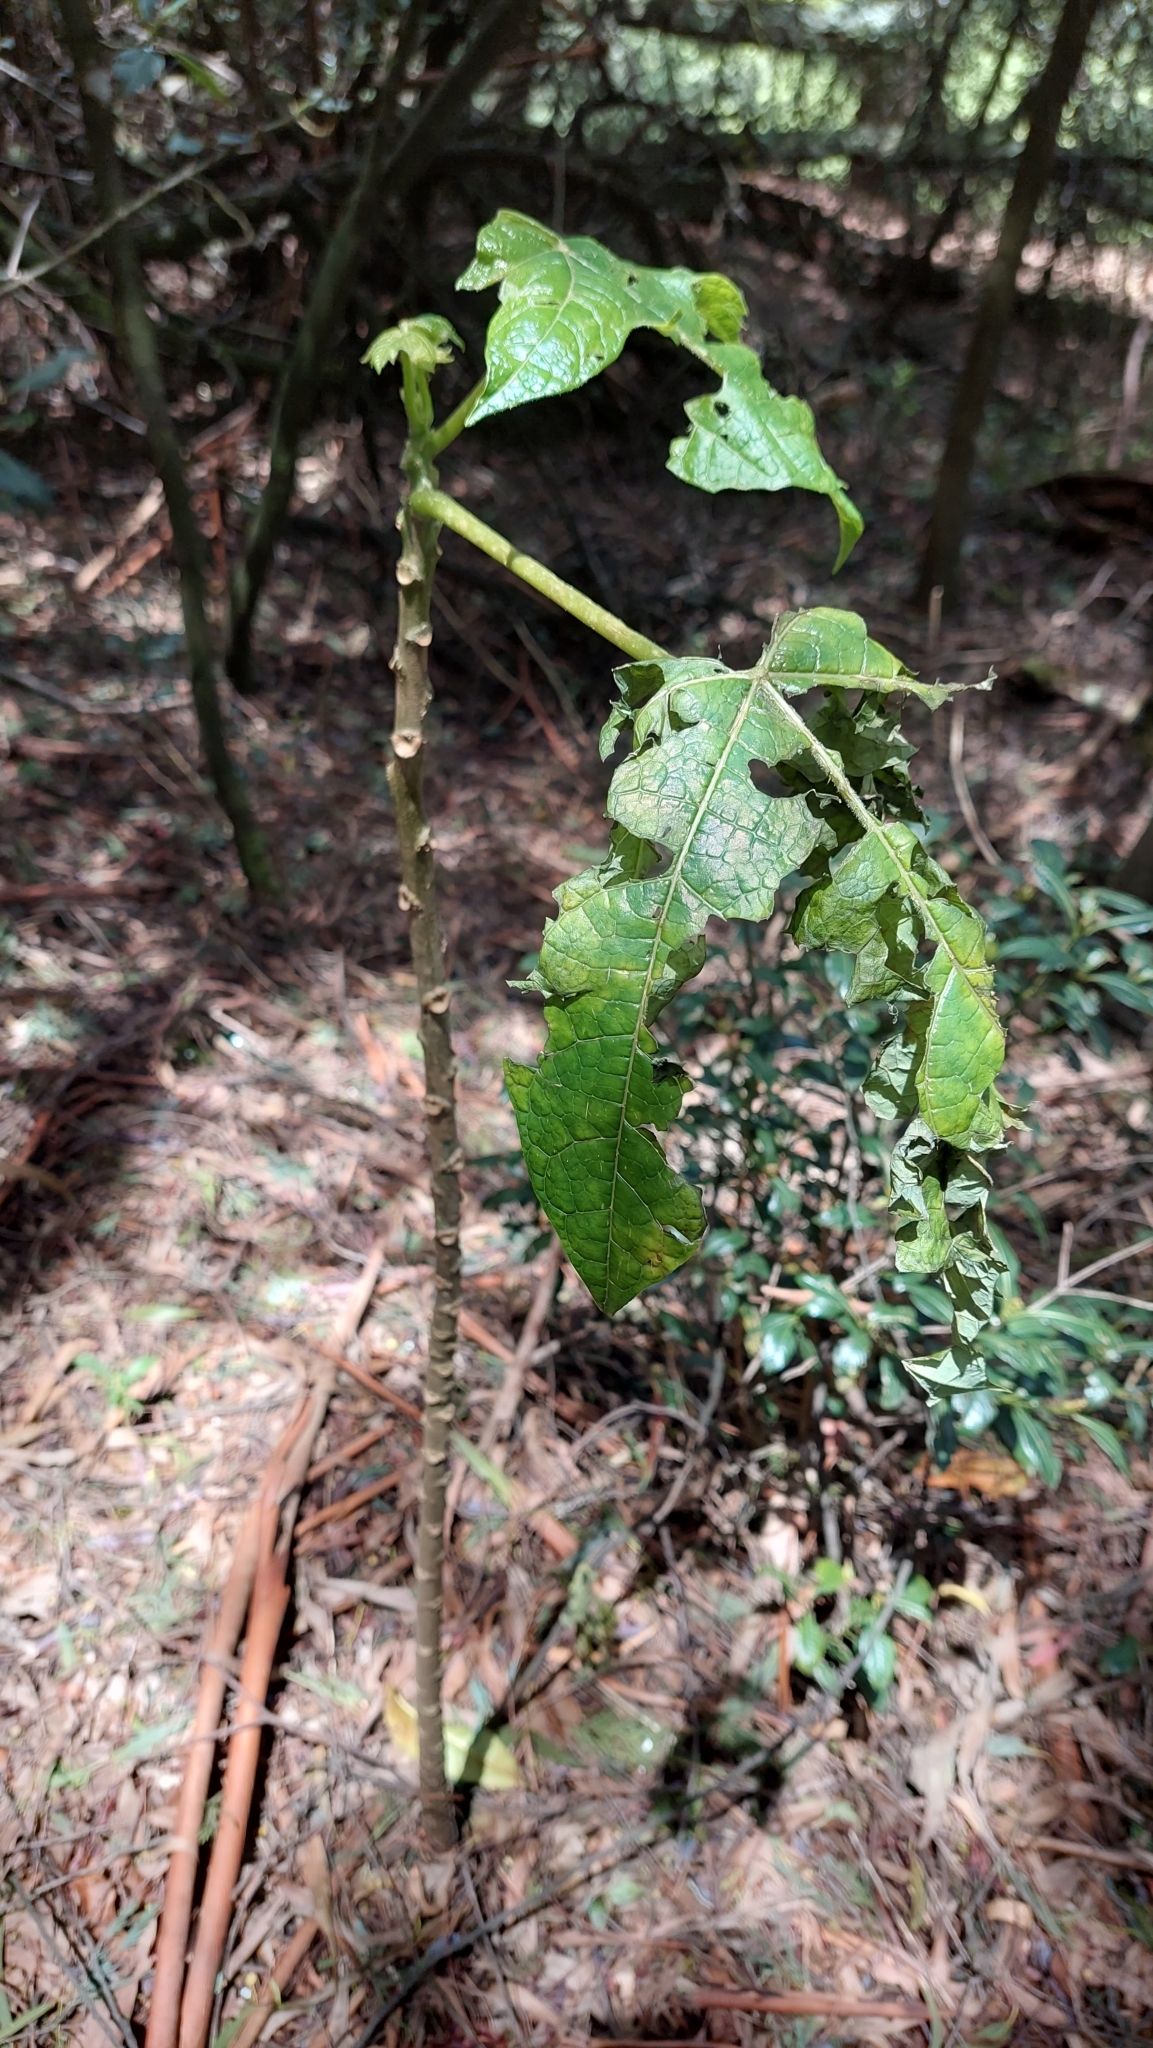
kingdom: Plantae
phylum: Tracheophyta
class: Magnoliopsida
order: Brassicales
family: Caricaceae
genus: Vasconcellea
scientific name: Vasconcellea pubescens
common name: Mountain papaya
